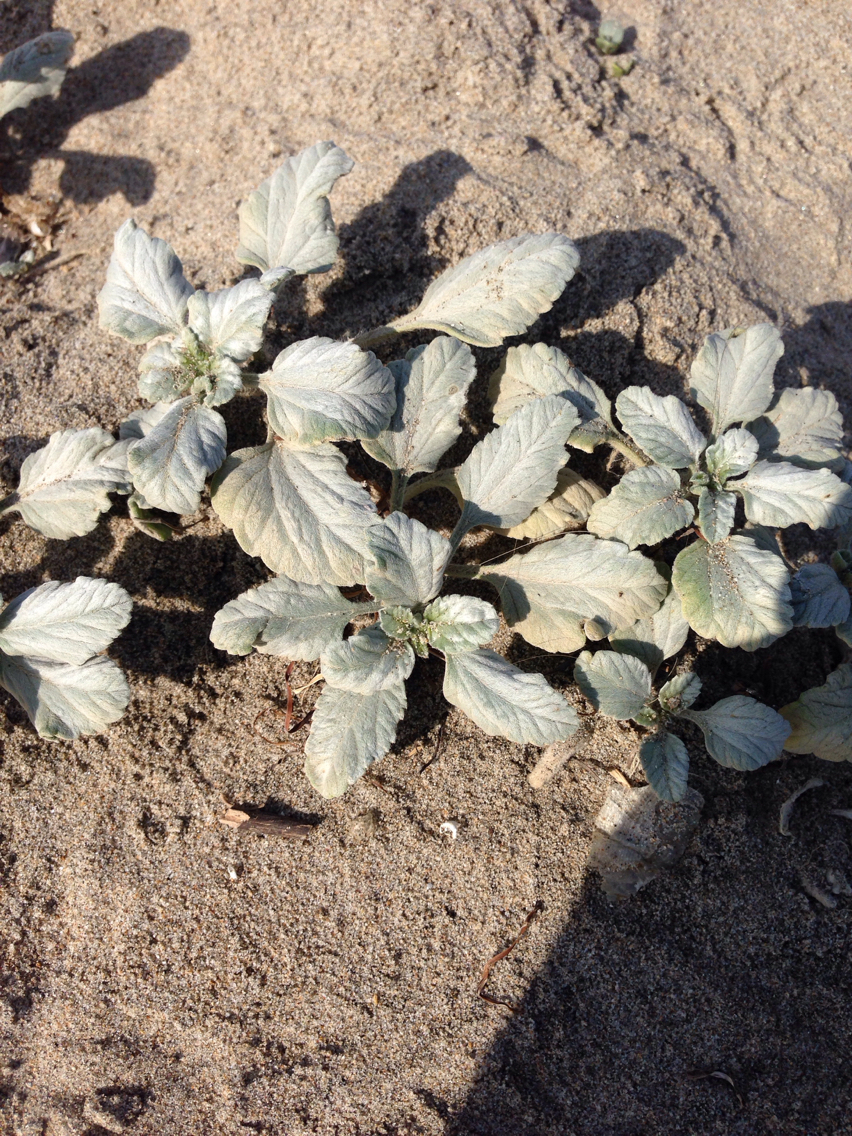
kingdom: Plantae
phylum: Tracheophyta
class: Magnoliopsida
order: Asterales
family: Asteraceae
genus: Ambrosia
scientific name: Ambrosia chamissonis
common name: Beachbur
